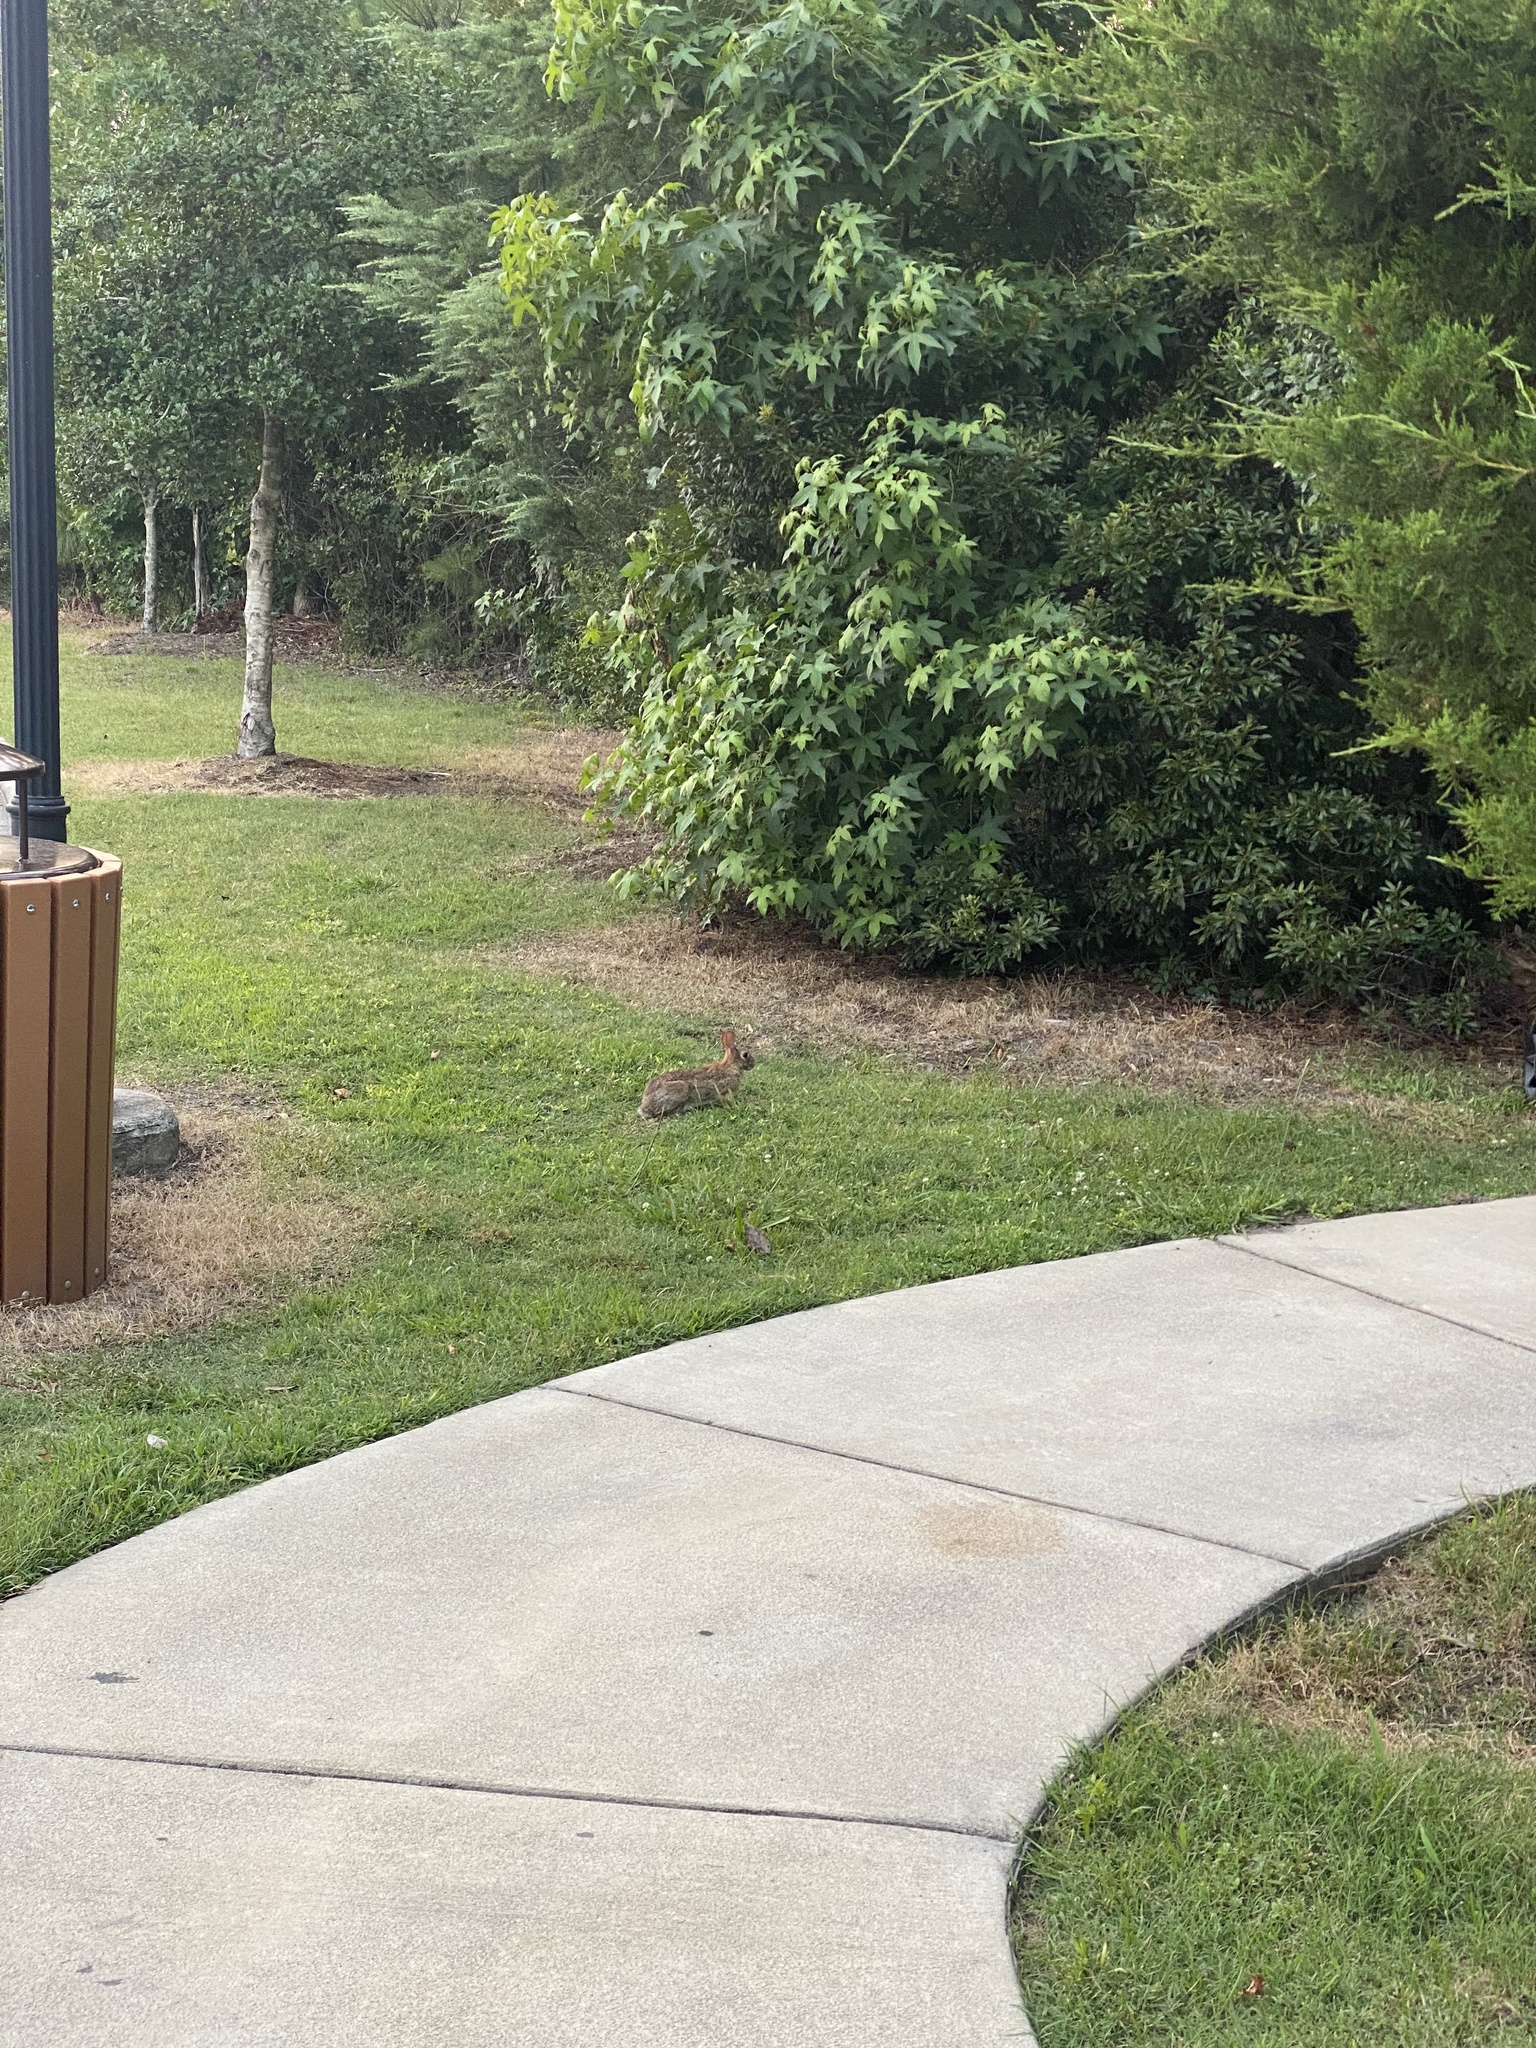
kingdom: Animalia
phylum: Chordata
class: Mammalia
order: Lagomorpha
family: Leporidae
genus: Sylvilagus
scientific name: Sylvilagus floridanus
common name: Eastern cottontail
